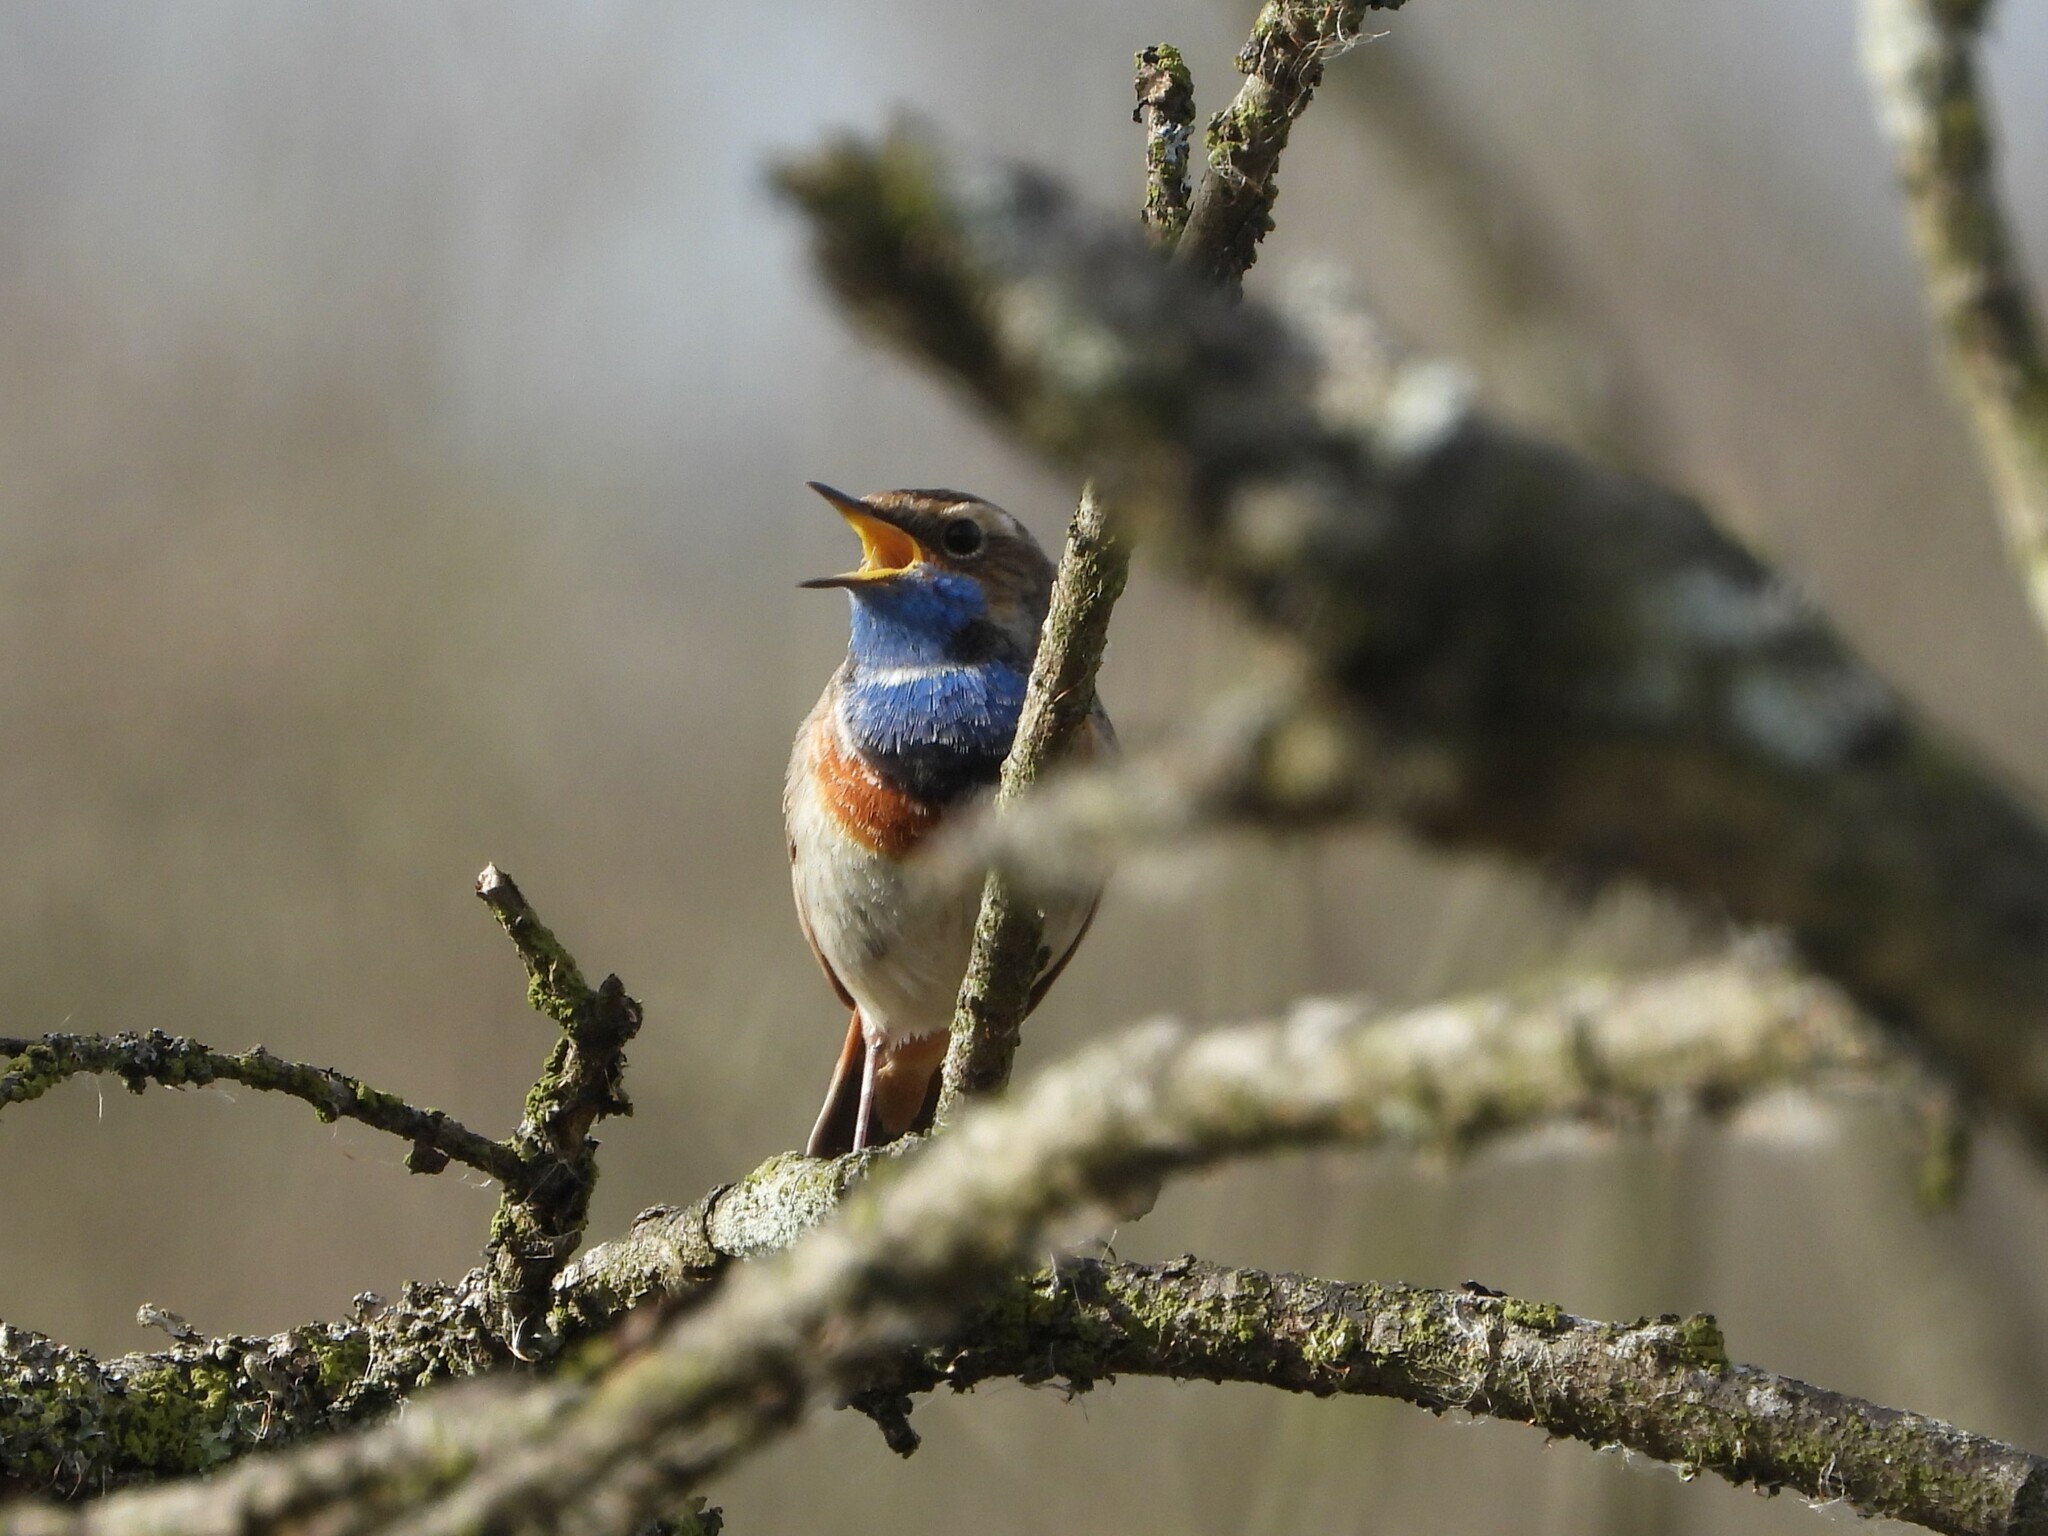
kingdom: Animalia
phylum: Chordata
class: Aves
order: Passeriformes
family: Muscicapidae
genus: Luscinia
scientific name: Luscinia svecica
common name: Bluethroat
